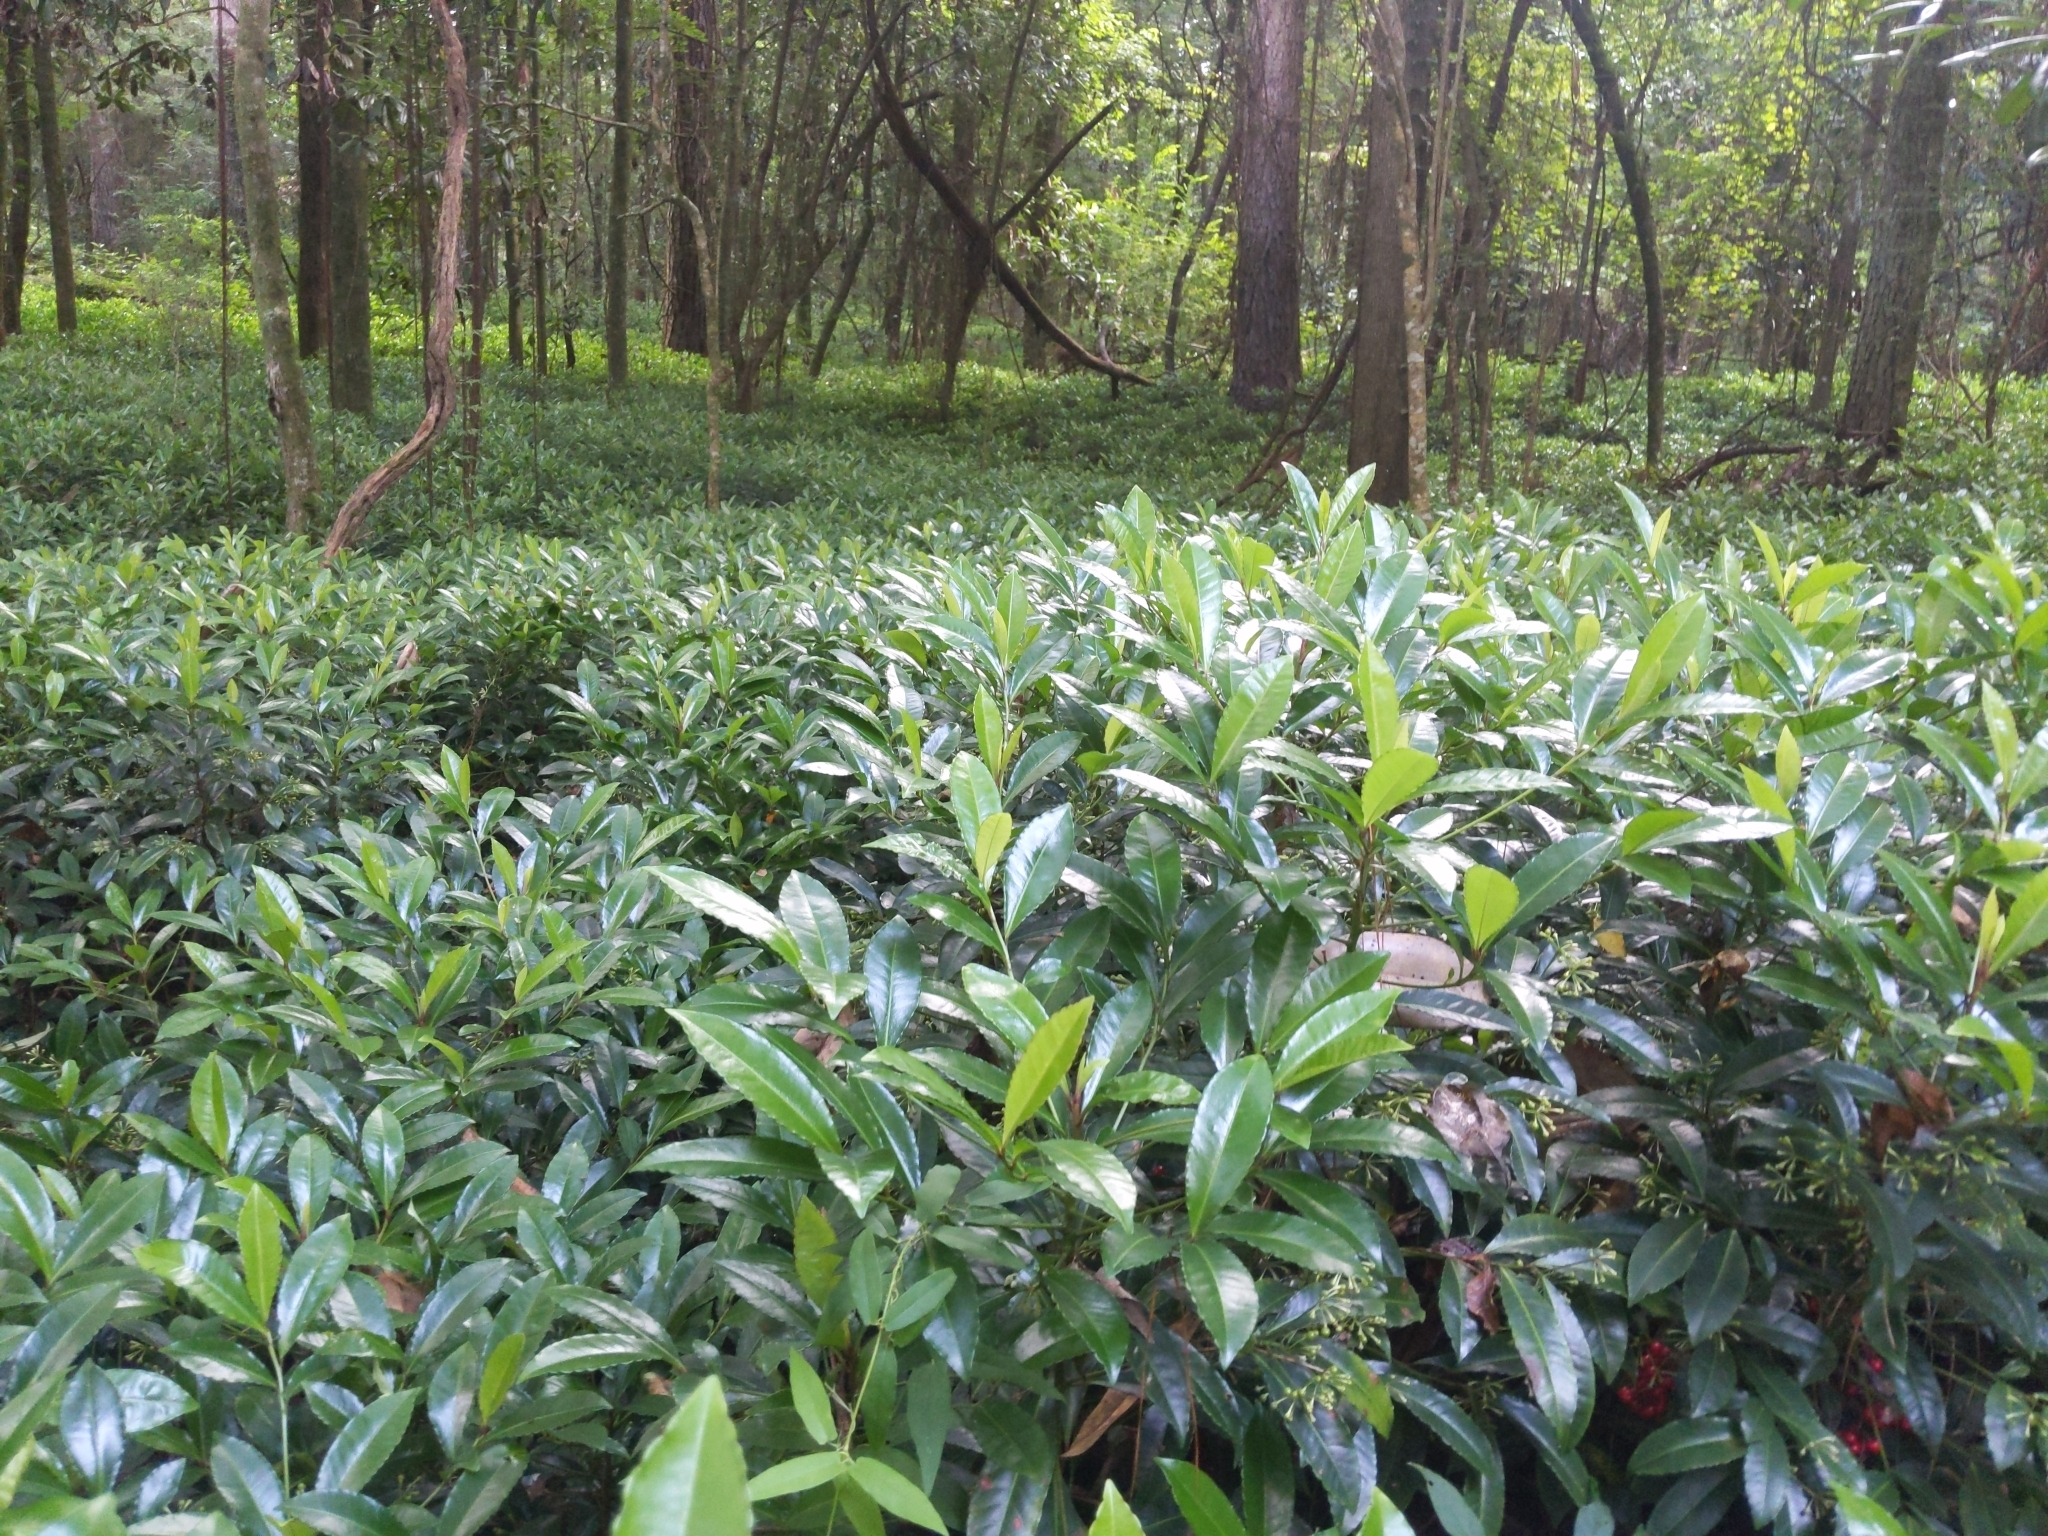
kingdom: Plantae
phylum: Tracheophyta
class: Magnoliopsida
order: Ericales
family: Primulaceae
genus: Ardisia
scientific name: Ardisia crenata
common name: Hen's eyes
